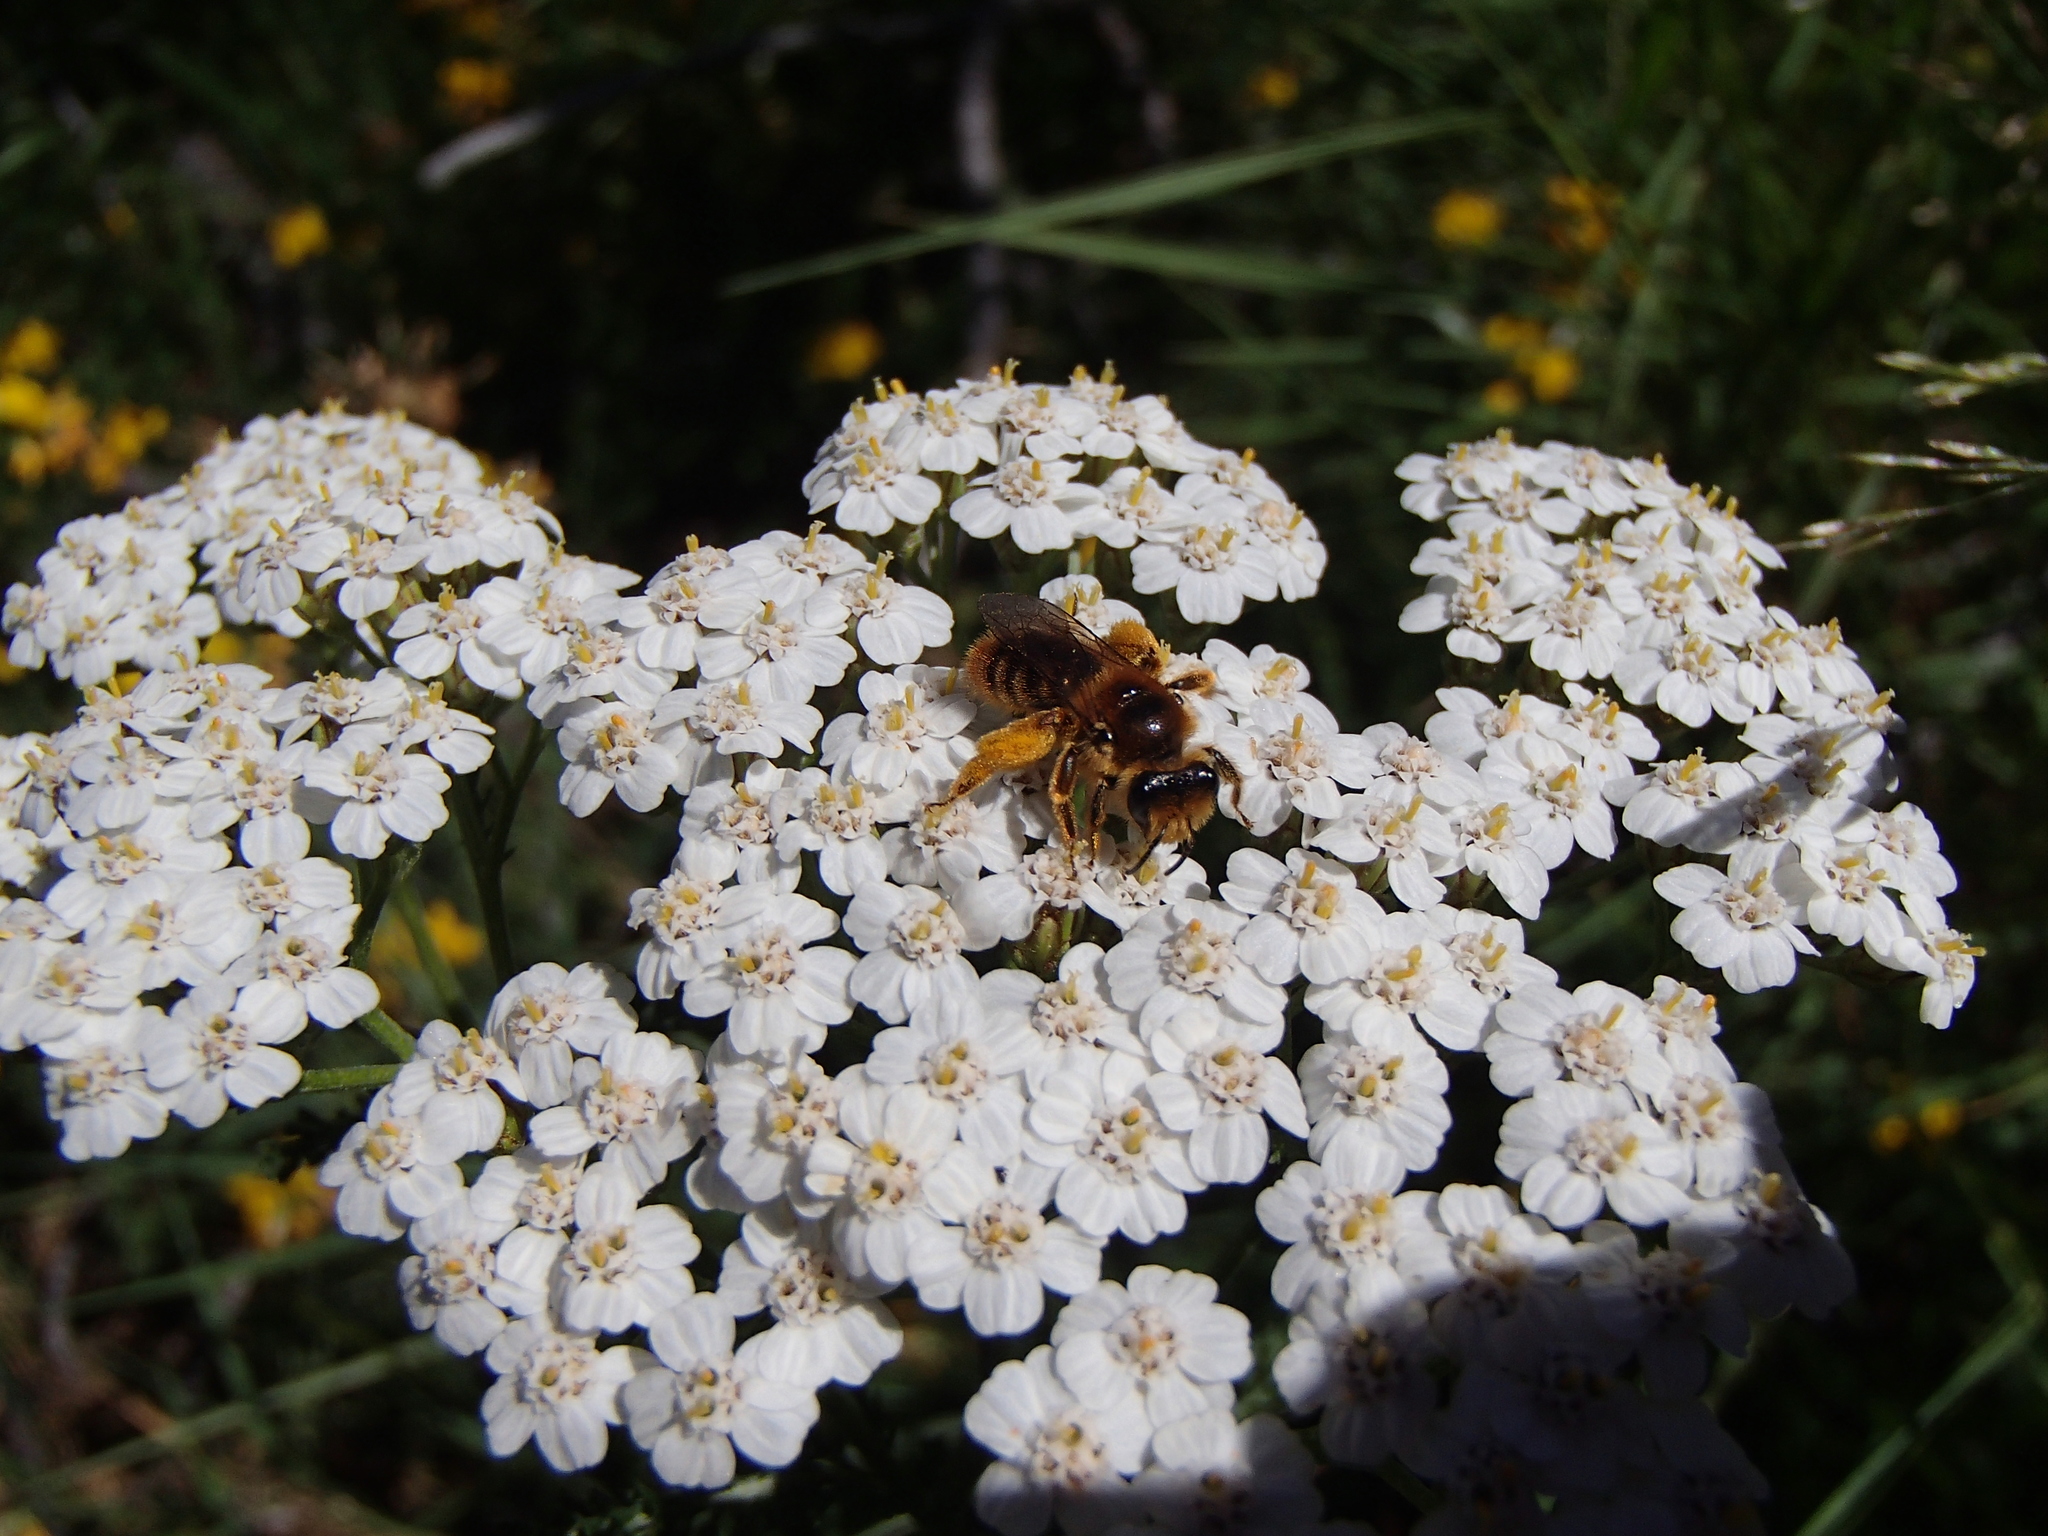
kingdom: Animalia
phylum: Arthropoda
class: Insecta
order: Hymenoptera
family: Colletidae
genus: Leioproctus
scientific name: Leioproctus fulvescens
